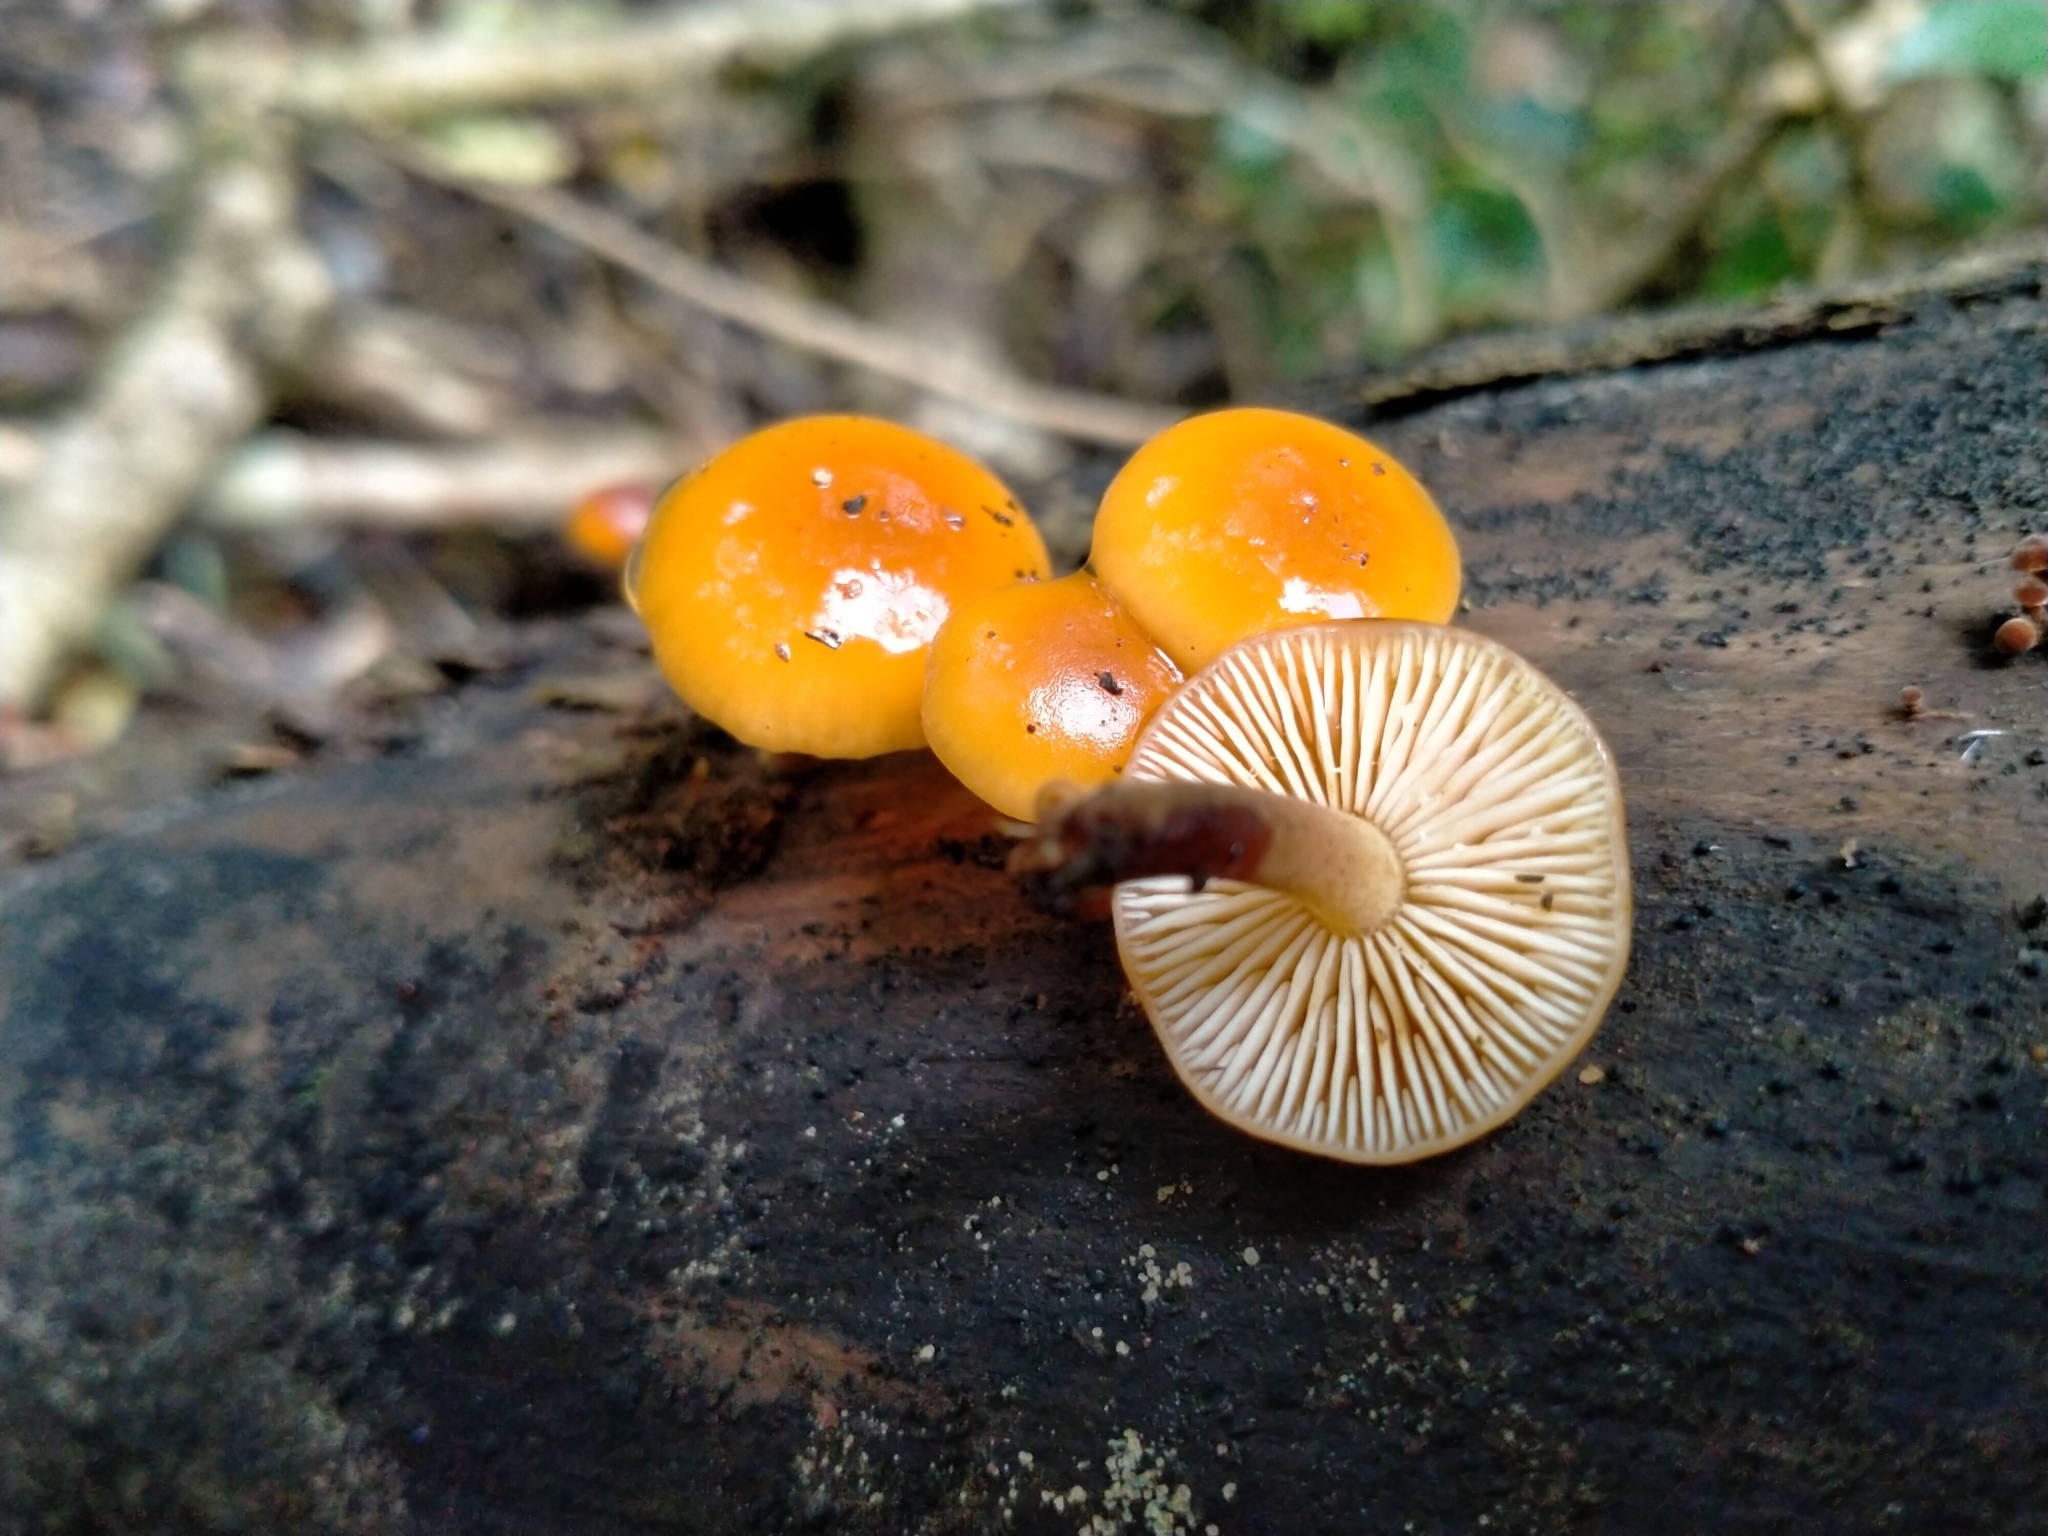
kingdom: Fungi
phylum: Basidiomycota
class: Agaricomycetes
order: Agaricales
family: Physalacriaceae
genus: Flammulina
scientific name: Flammulina velutipes
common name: Velvet shank
